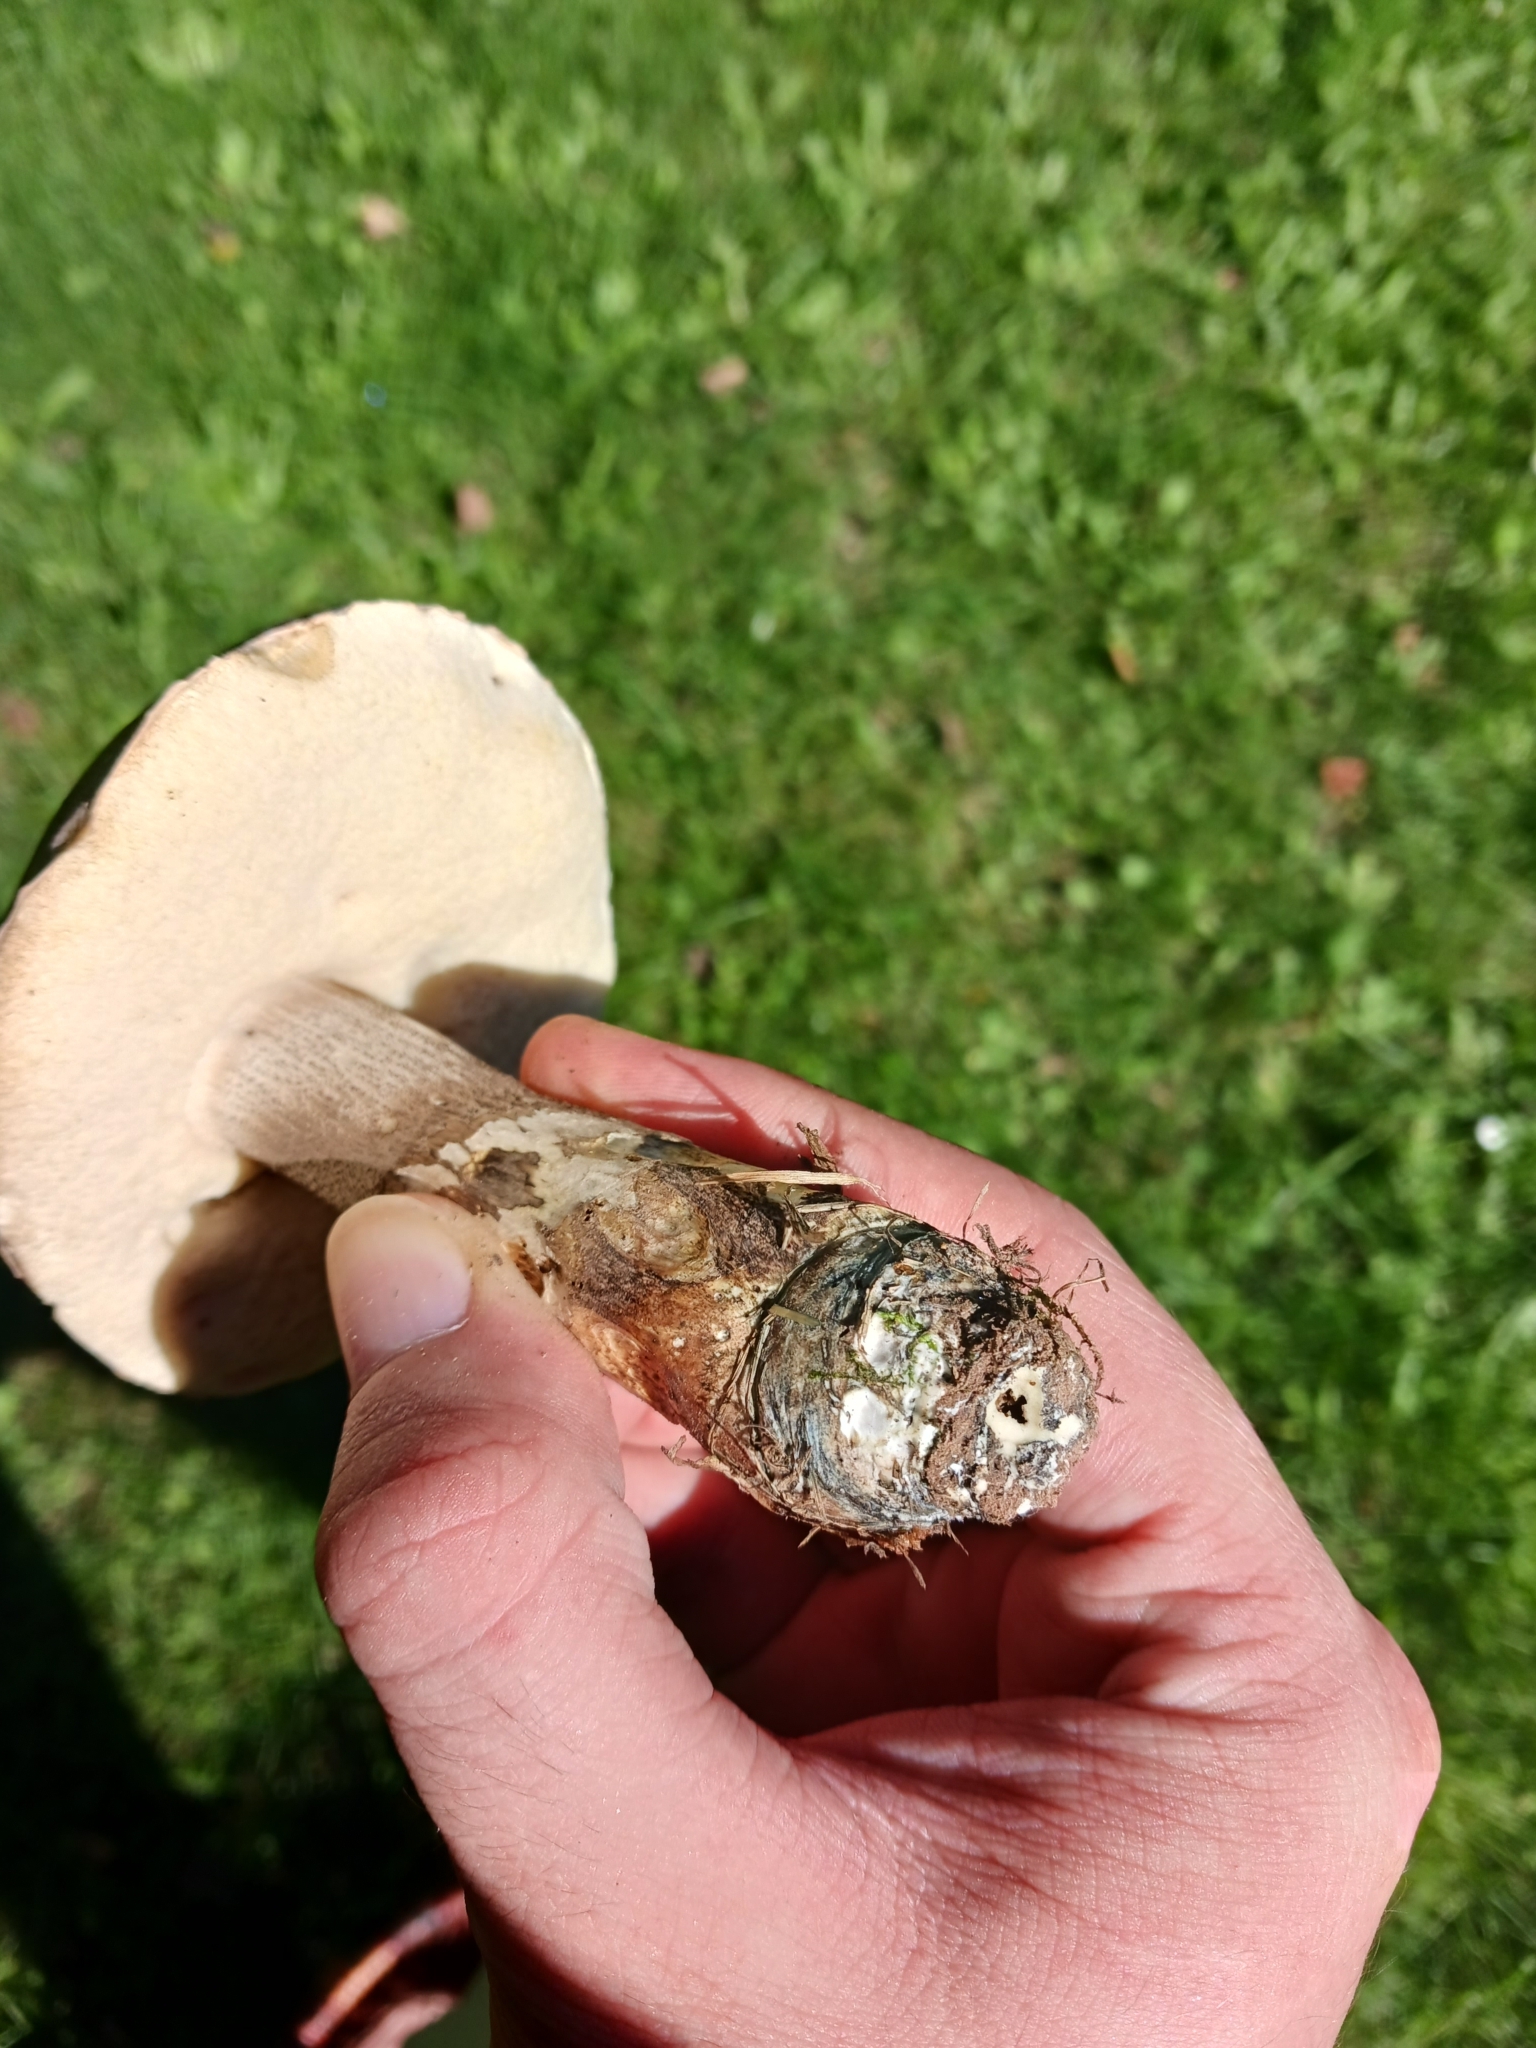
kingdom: Fungi
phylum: Basidiomycota
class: Agaricomycetes
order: Boletales
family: Boletaceae
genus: Leccinum
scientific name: Leccinum duriusculum
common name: Slate bolete
